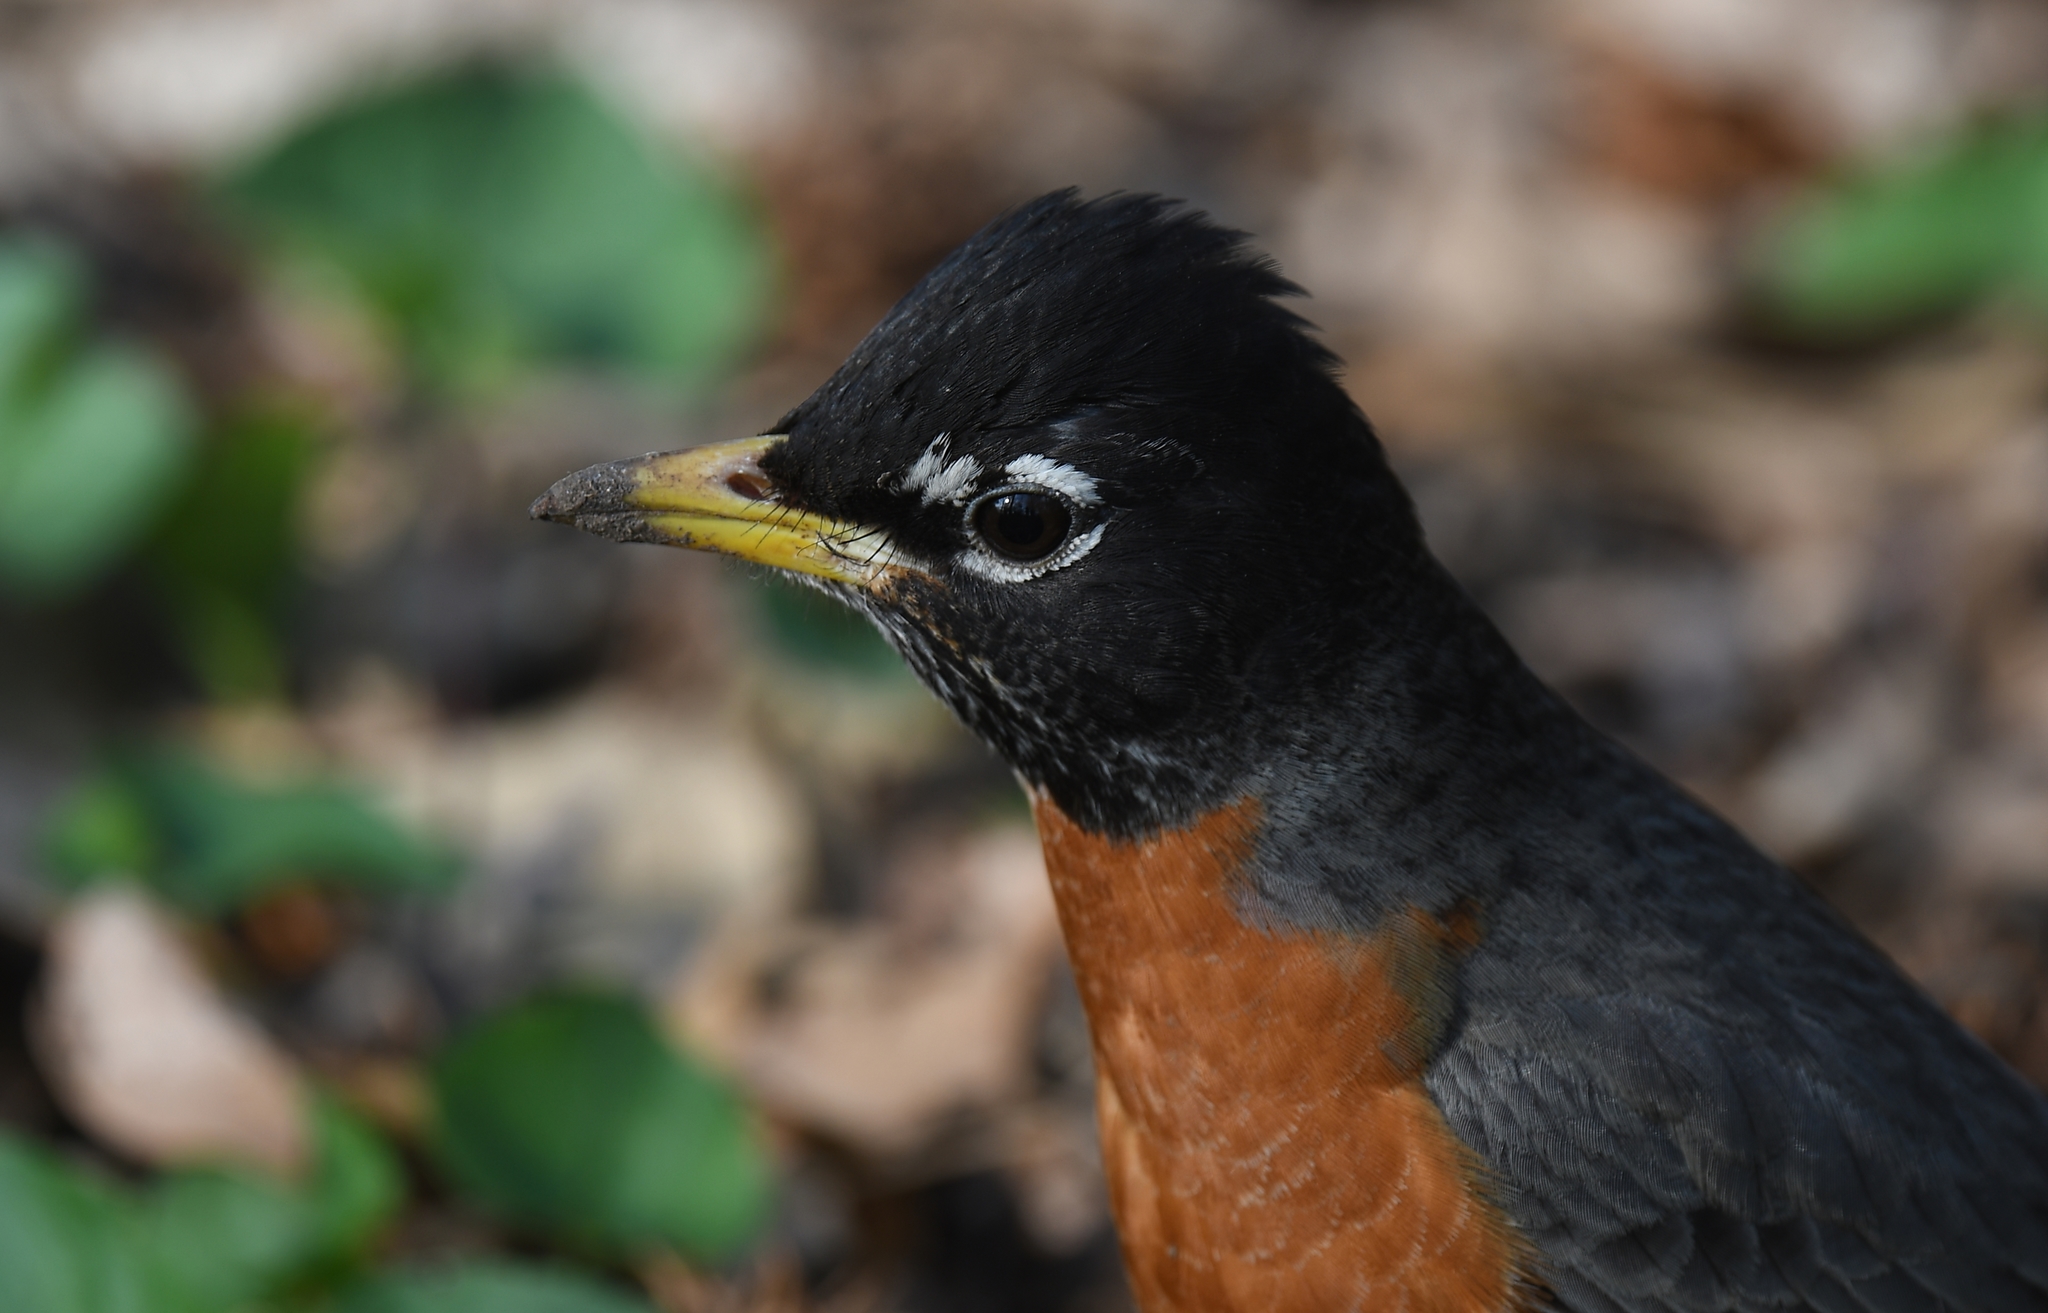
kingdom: Animalia
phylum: Chordata
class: Aves
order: Passeriformes
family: Turdidae
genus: Turdus
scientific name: Turdus migratorius
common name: American robin
